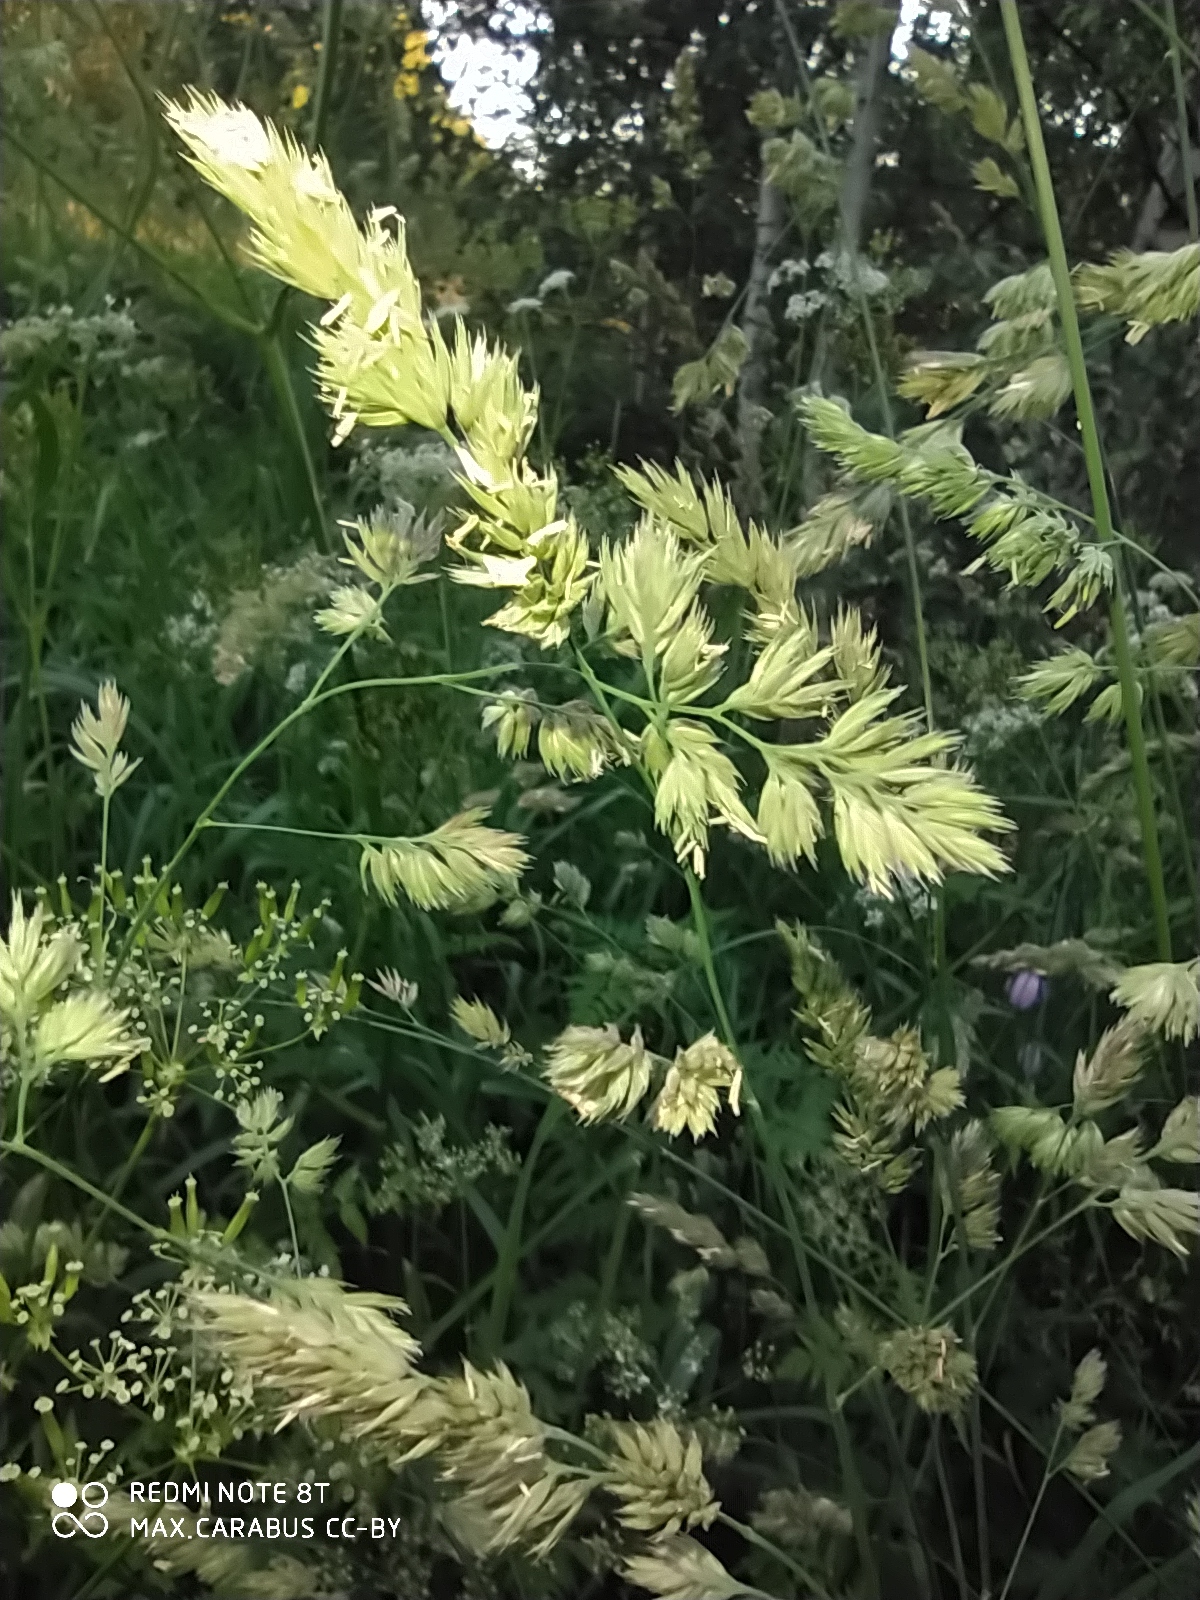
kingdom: Plantae
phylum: Tracheophyta
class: Liliopsida
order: Poales
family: Poaceae
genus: Dactylis
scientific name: Dactylis glomerata
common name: Orchardgrass
